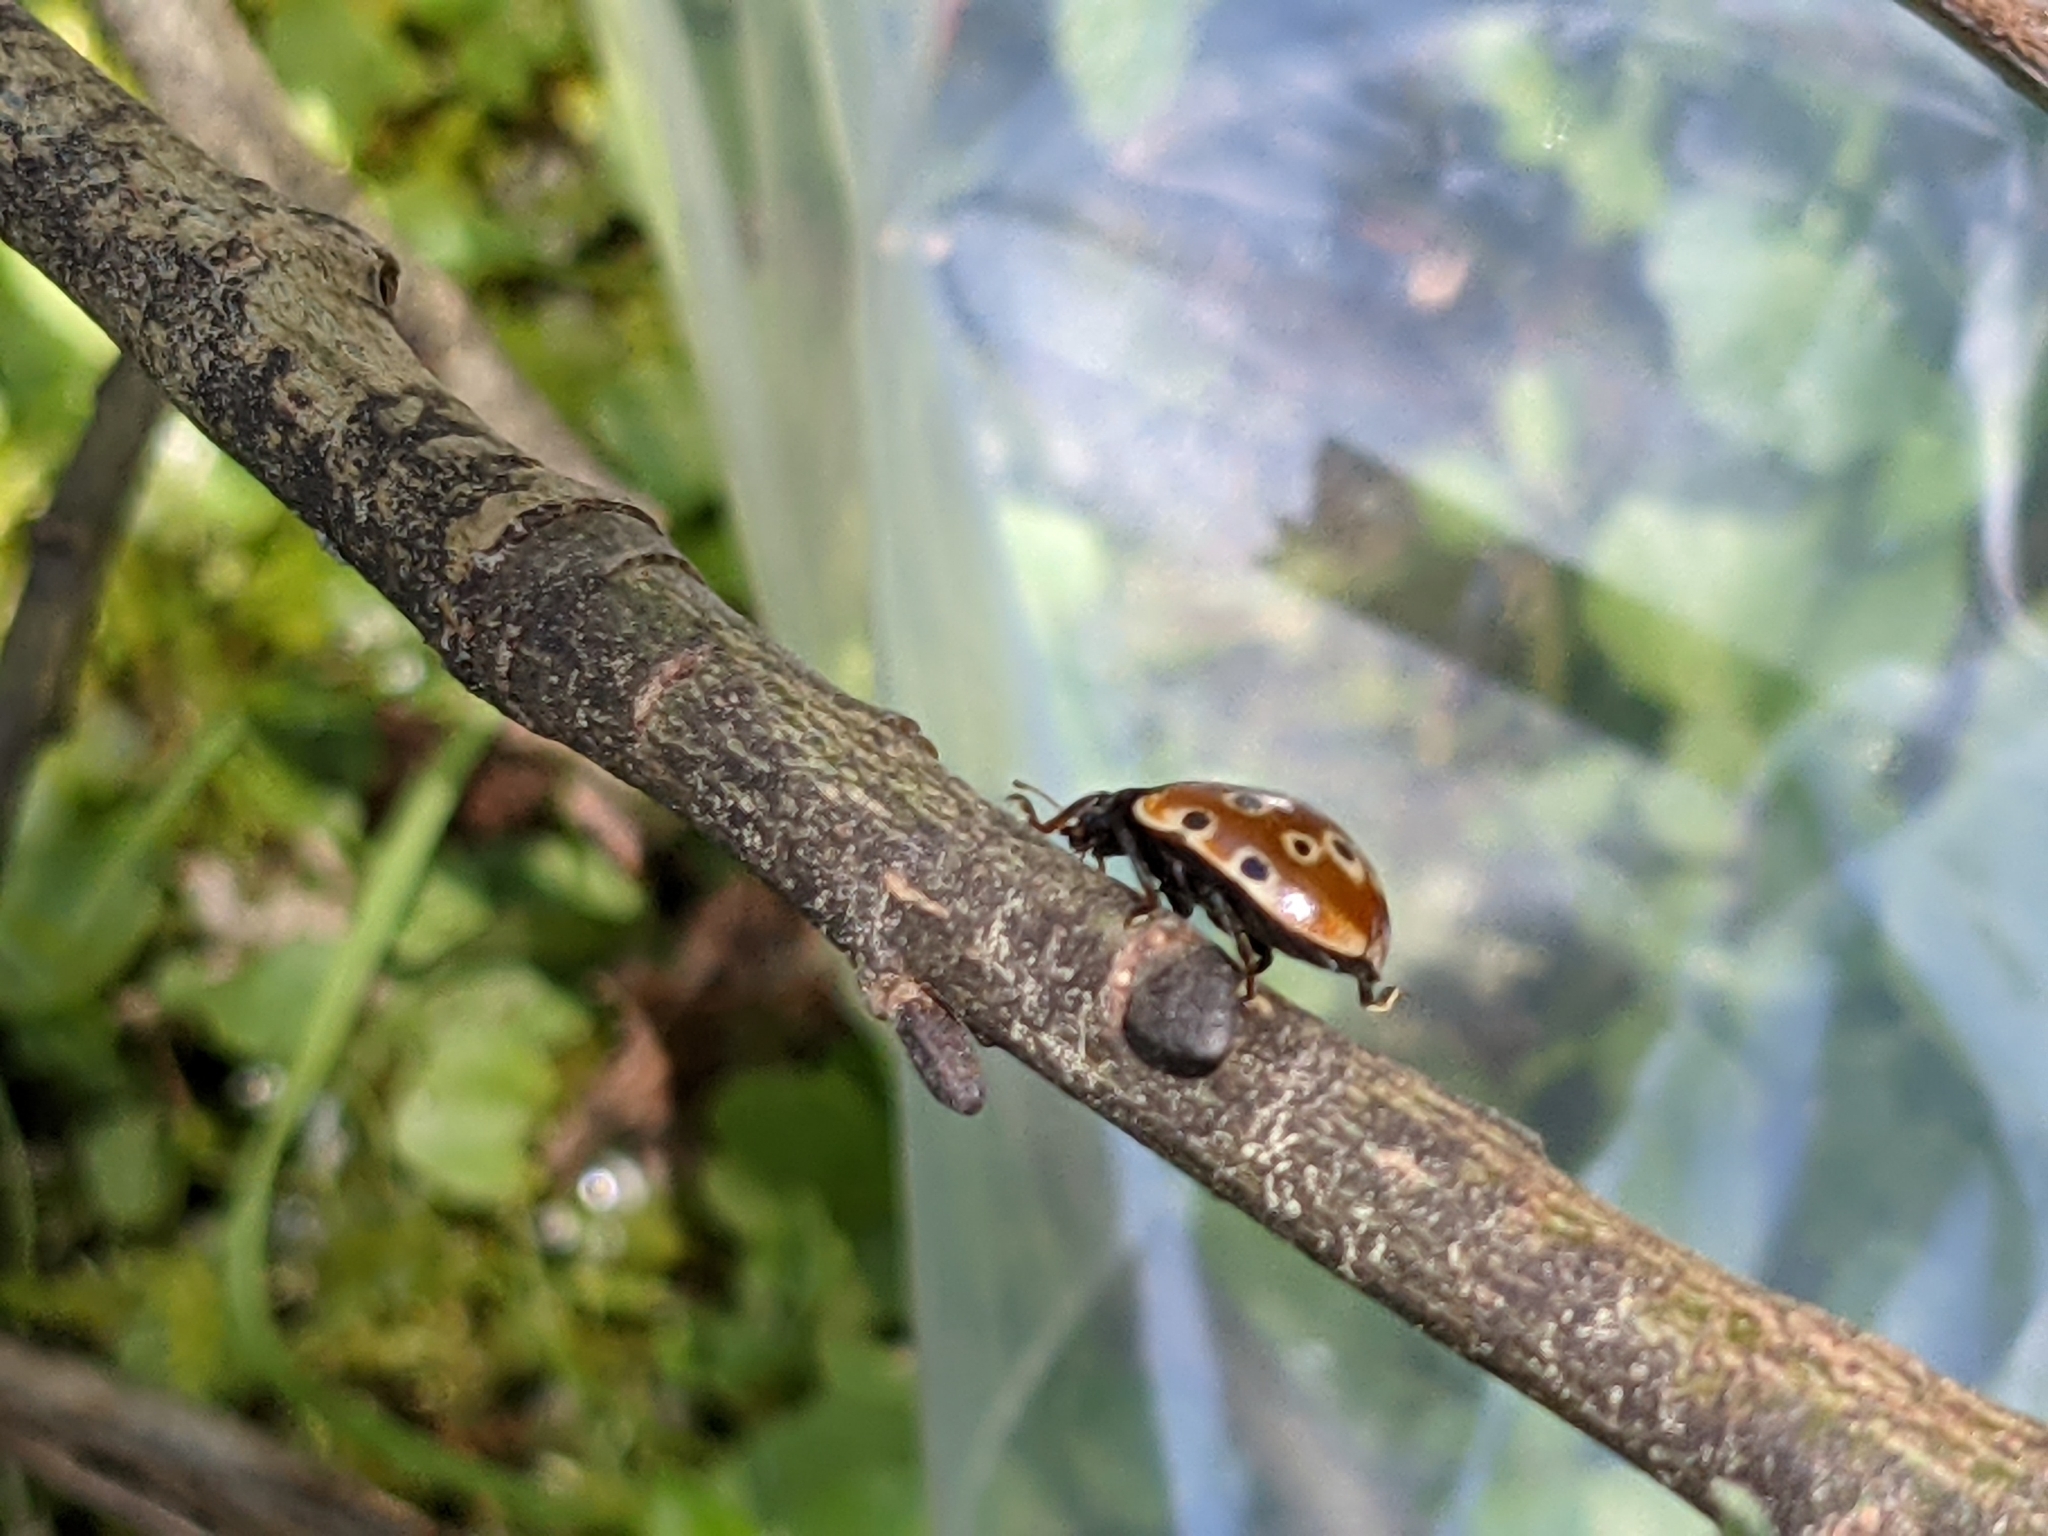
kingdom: Animalia
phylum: Arthropoda
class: Insecta
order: Coleoptera
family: Coccinellidae
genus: Anatis
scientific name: Anatis ocellata
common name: Eyed ladybird
